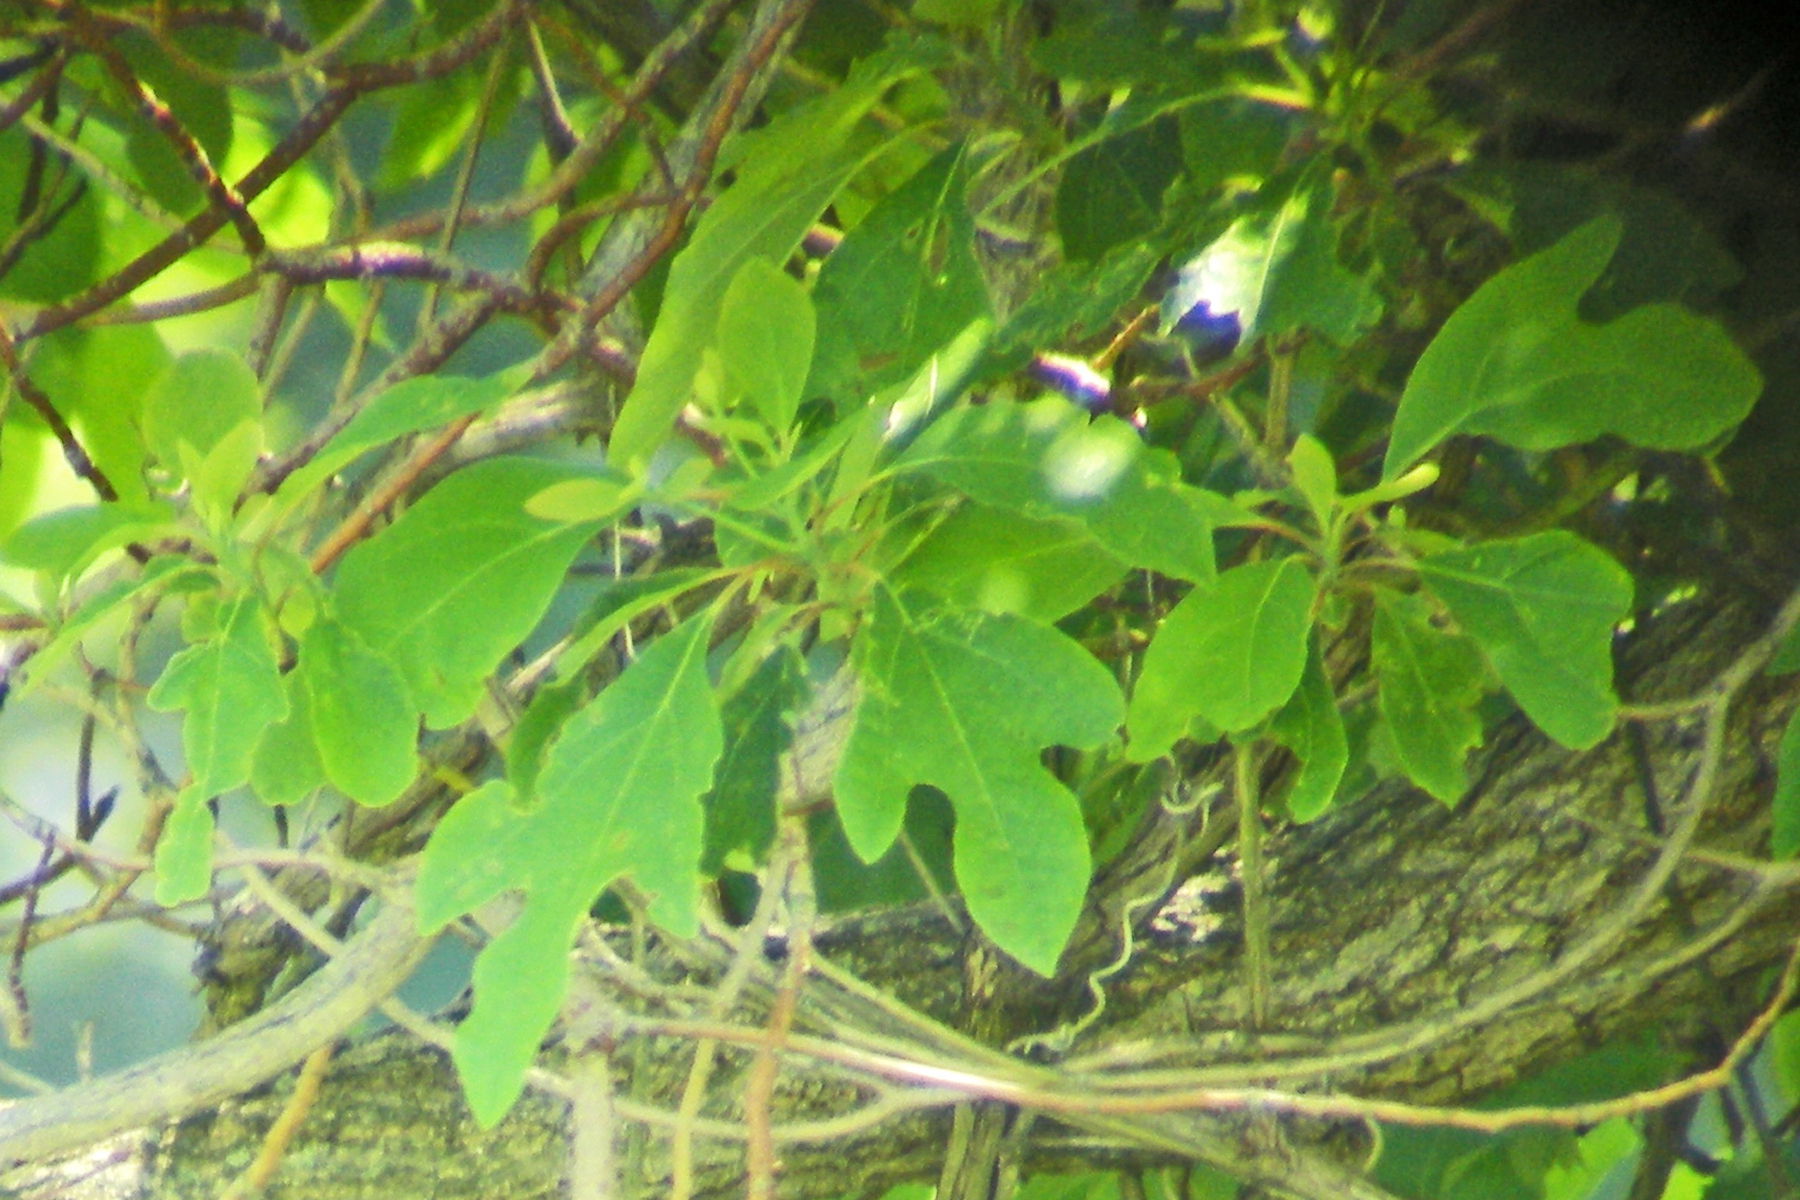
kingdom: Plantae
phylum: Tracheophyta
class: Magnoliopsida
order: Laurales
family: Lauraceae
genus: Sassafras
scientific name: Sassafras albidum
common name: Sassafras
